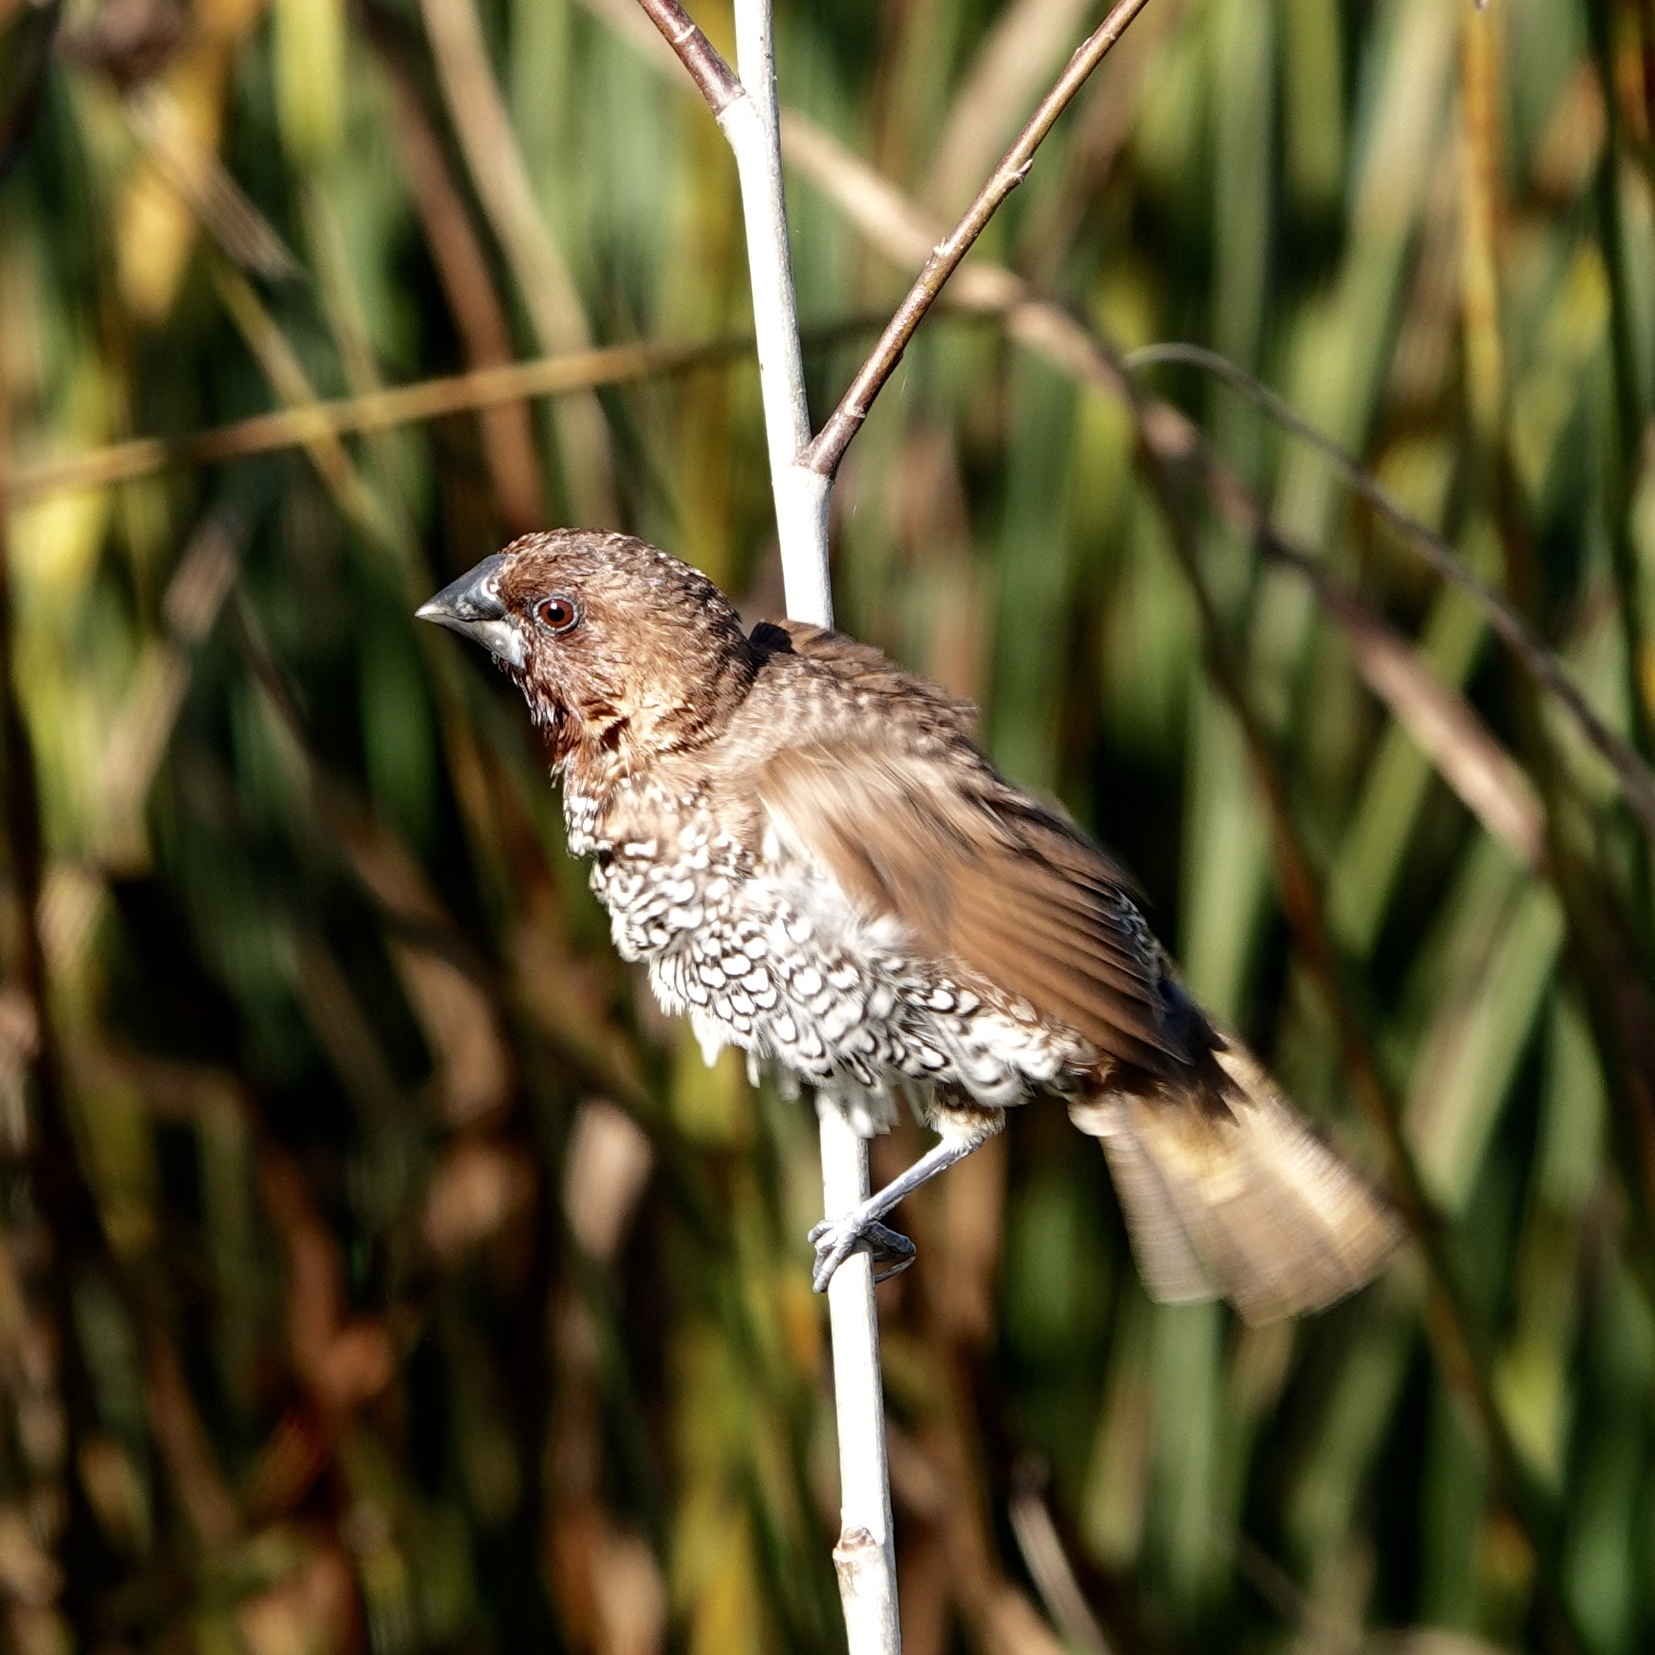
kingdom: Animalia
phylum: Chordata
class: Aves
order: Passeriformes
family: Estrildidae
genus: Lonchura
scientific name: Lonchura punctulata
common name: Scaly-breasted munia
